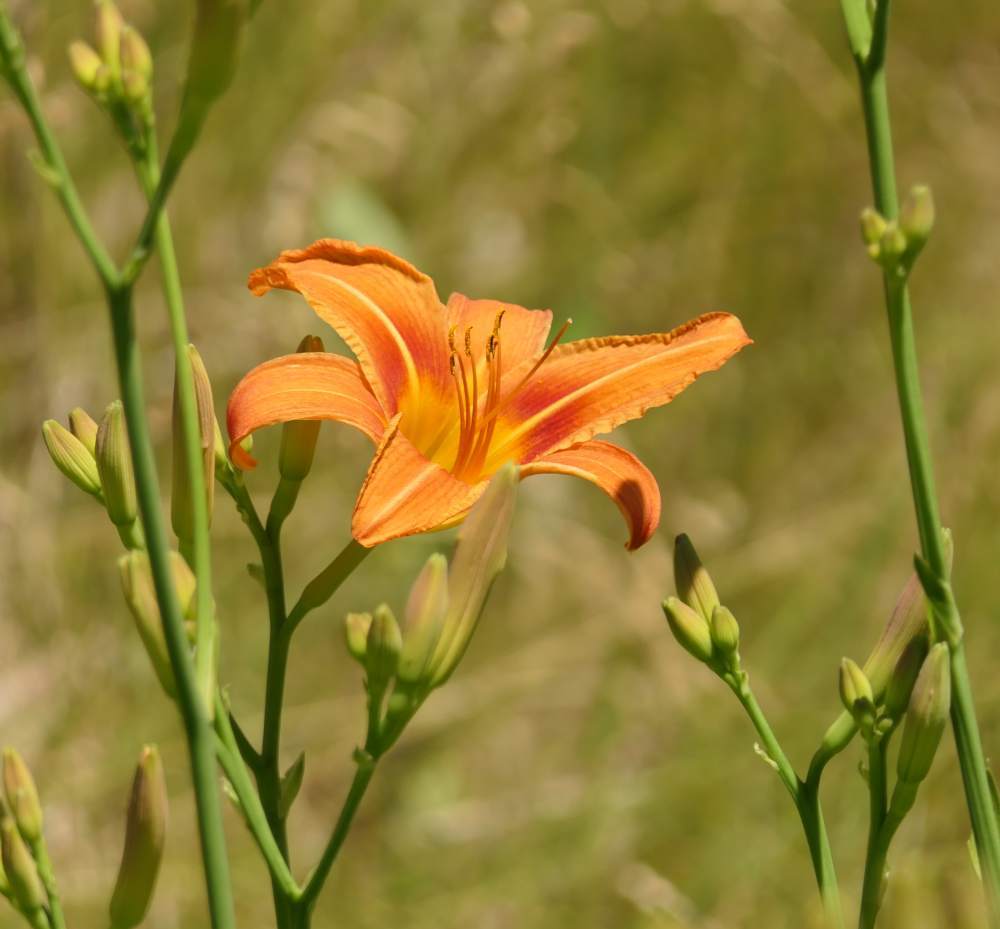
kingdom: Plantae
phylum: Tracheophyta
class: Liliopsida
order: Asparagales
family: Asphodelaceae
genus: Hemerocallis
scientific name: Hemerocallis fulva
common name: Orange day-lily
